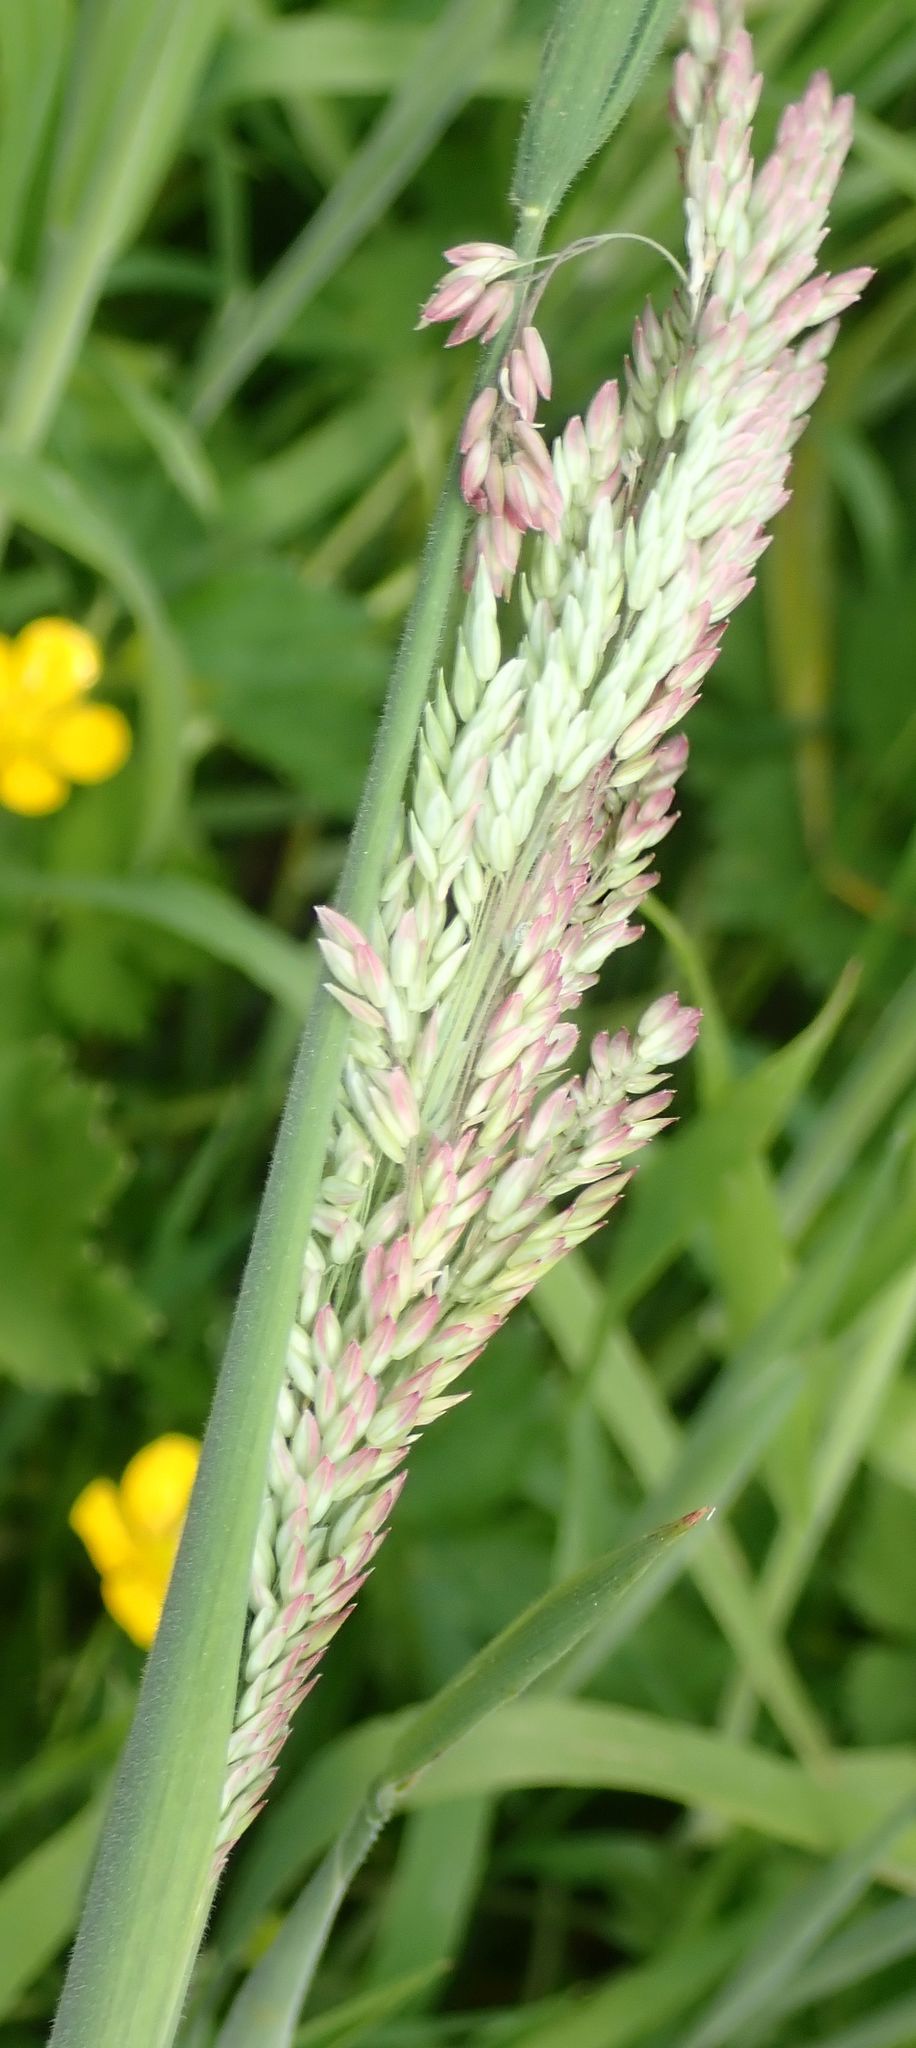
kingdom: Plantae
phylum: Tracheophyta
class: Liliopsida
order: Poales
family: Poaceae
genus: Holcus
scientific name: Holcus lanatus
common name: Yorkshire-fog
